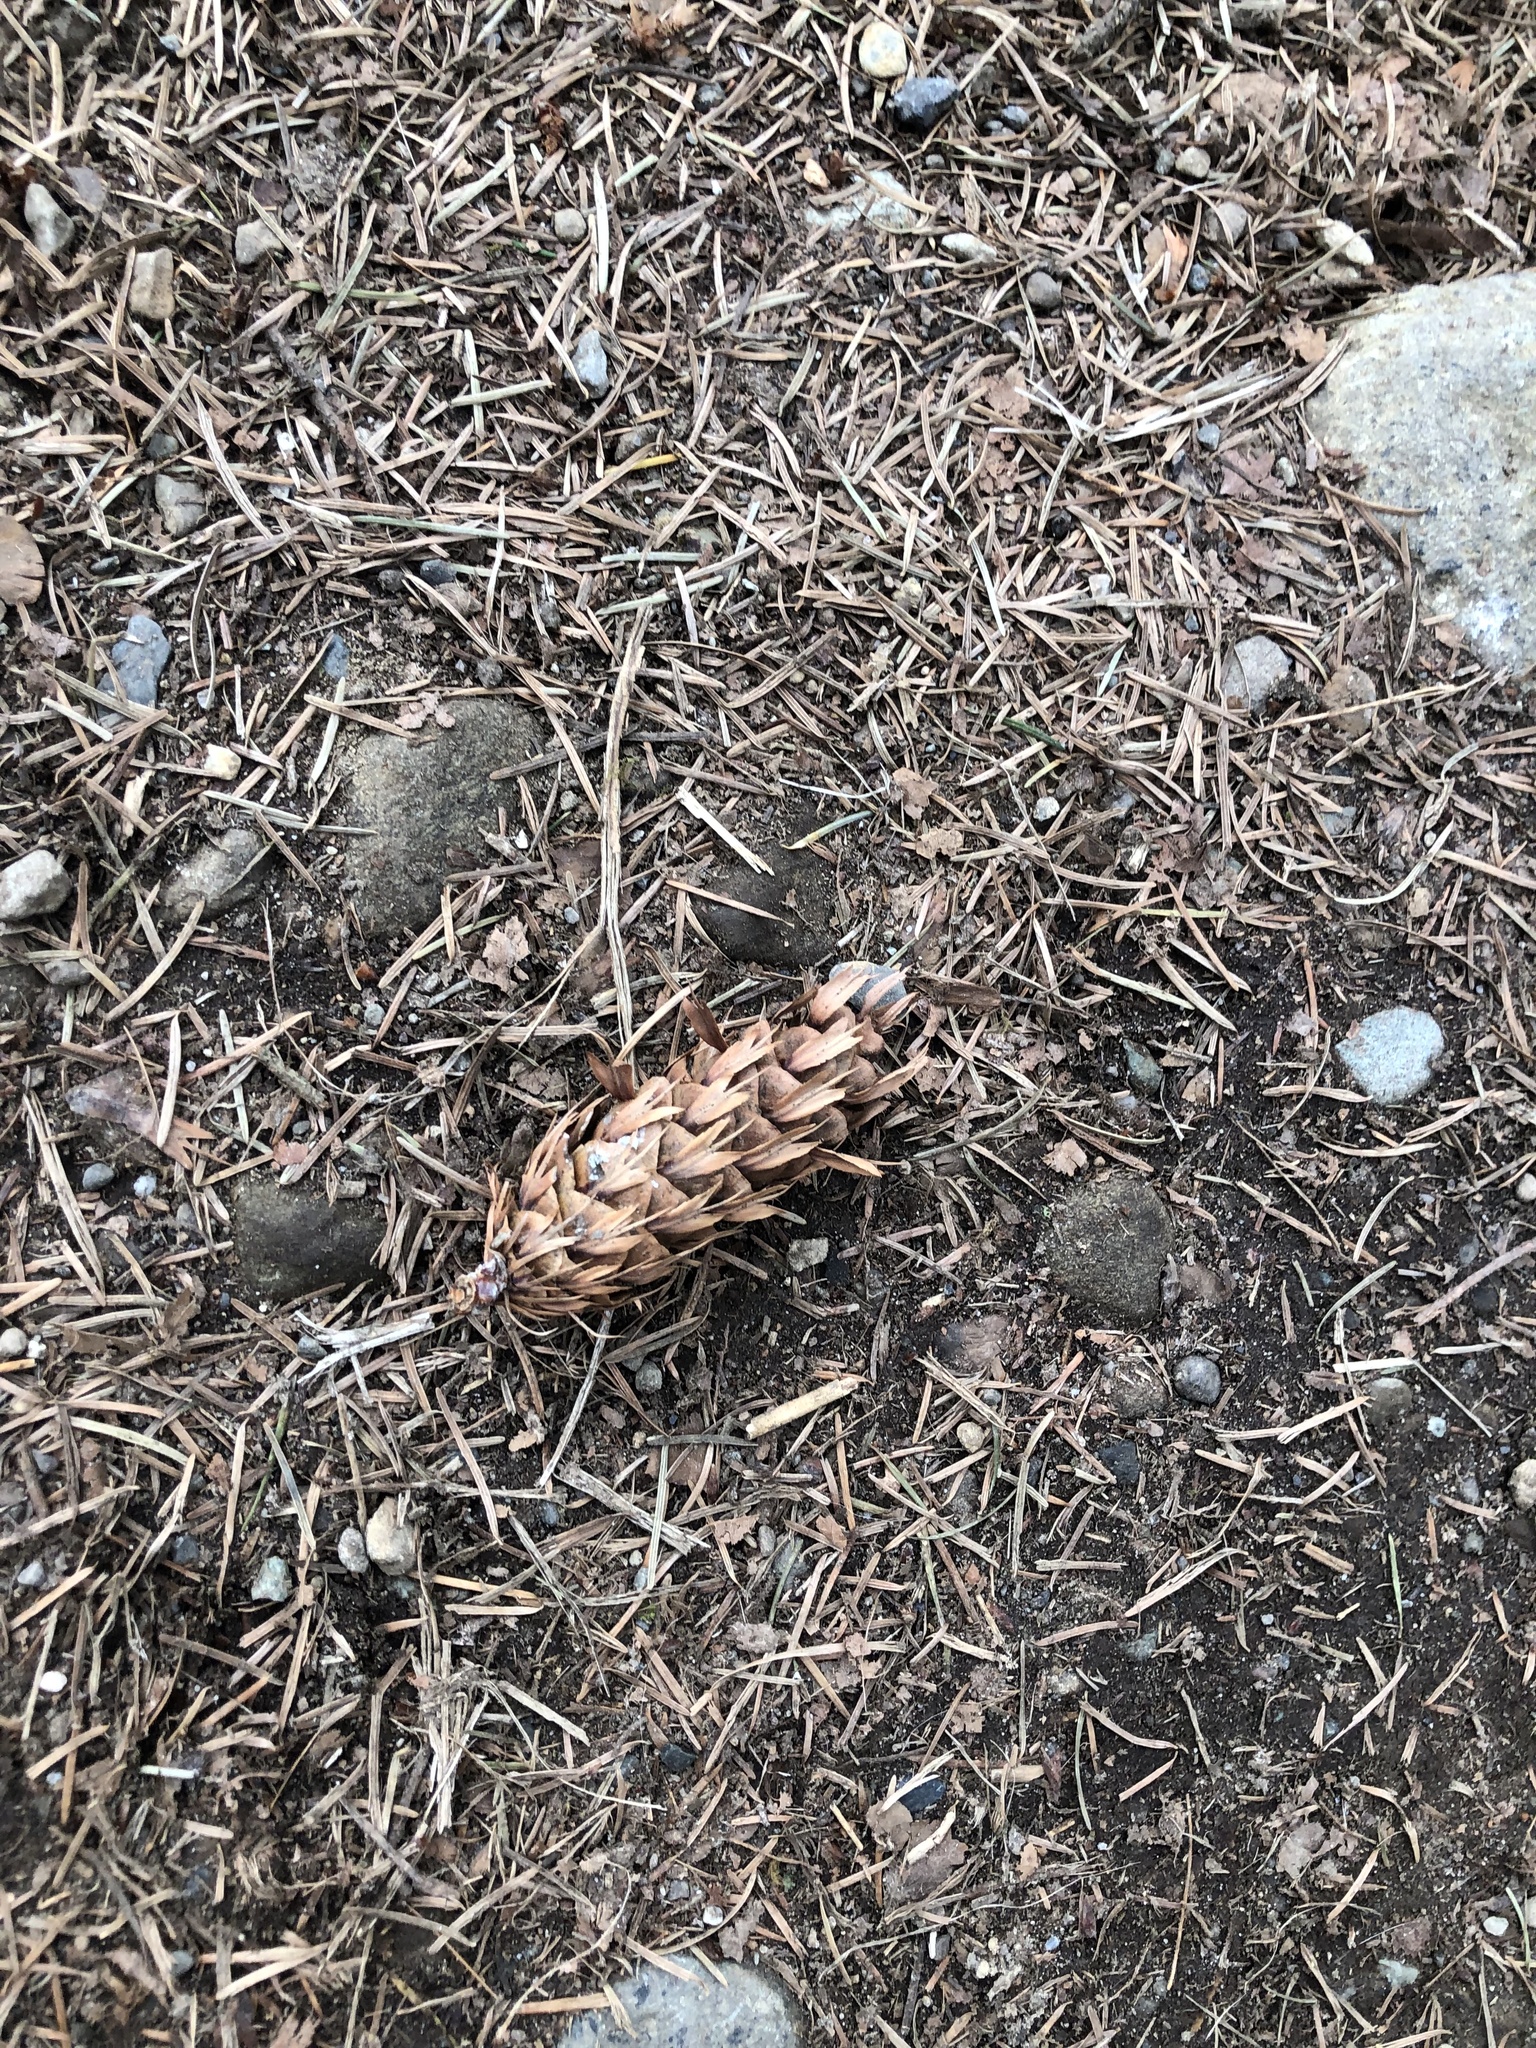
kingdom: Plantae
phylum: Tracheophyta
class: Pinopsida
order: Pinales
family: Pinaceae
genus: Pseudotsuga
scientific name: Pseudotsuga menziesii
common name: Douglas fir
